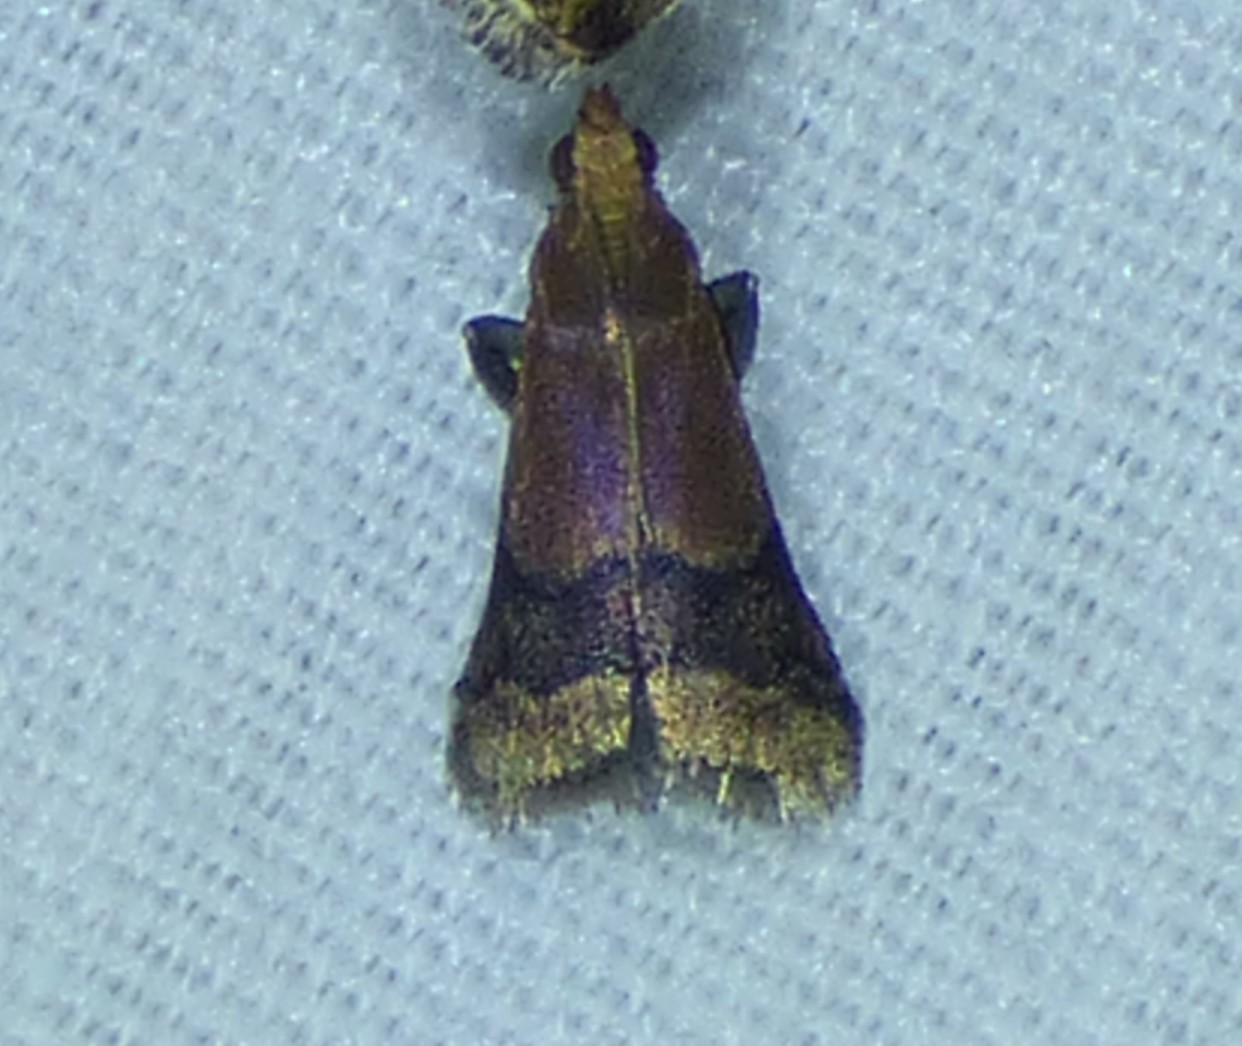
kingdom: Animalia
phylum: Arthropoda
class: Insecta
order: Lepidoptera
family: Pyralidae
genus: Eulogia
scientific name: Eulogia ochrifrontella
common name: Broad-banded eulogia moth
